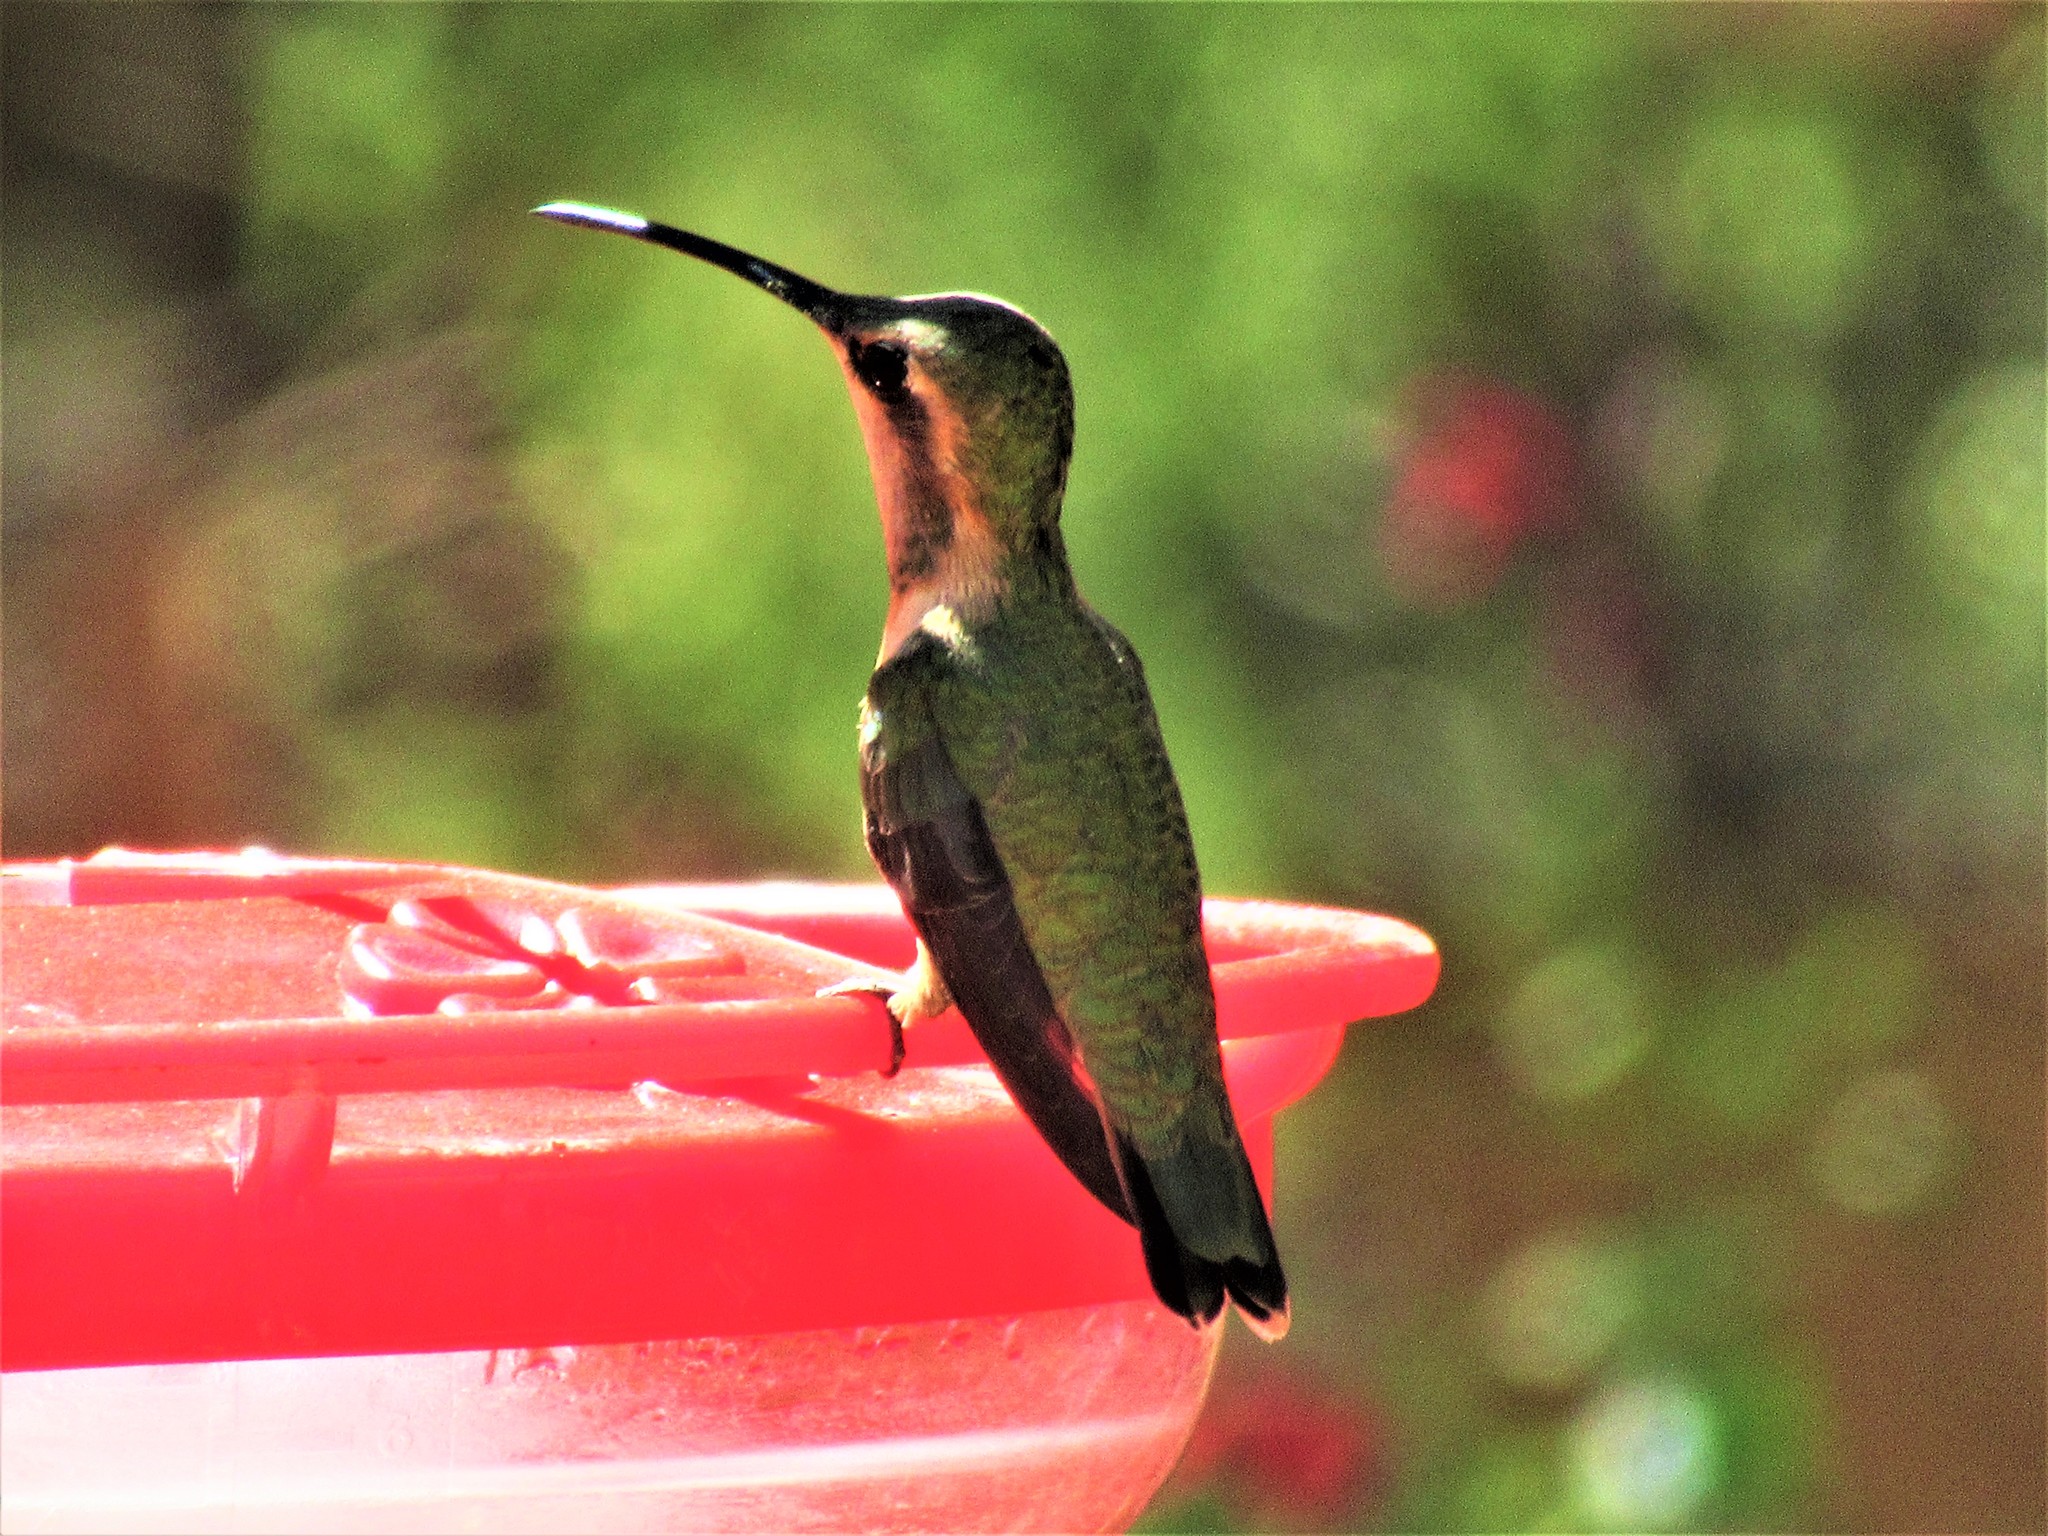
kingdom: Animalia
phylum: Chordata
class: Aves
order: Apodiformes
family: Trochilidae
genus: Calothorax
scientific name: Calothorax lucifer
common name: Lucifer sheartail
